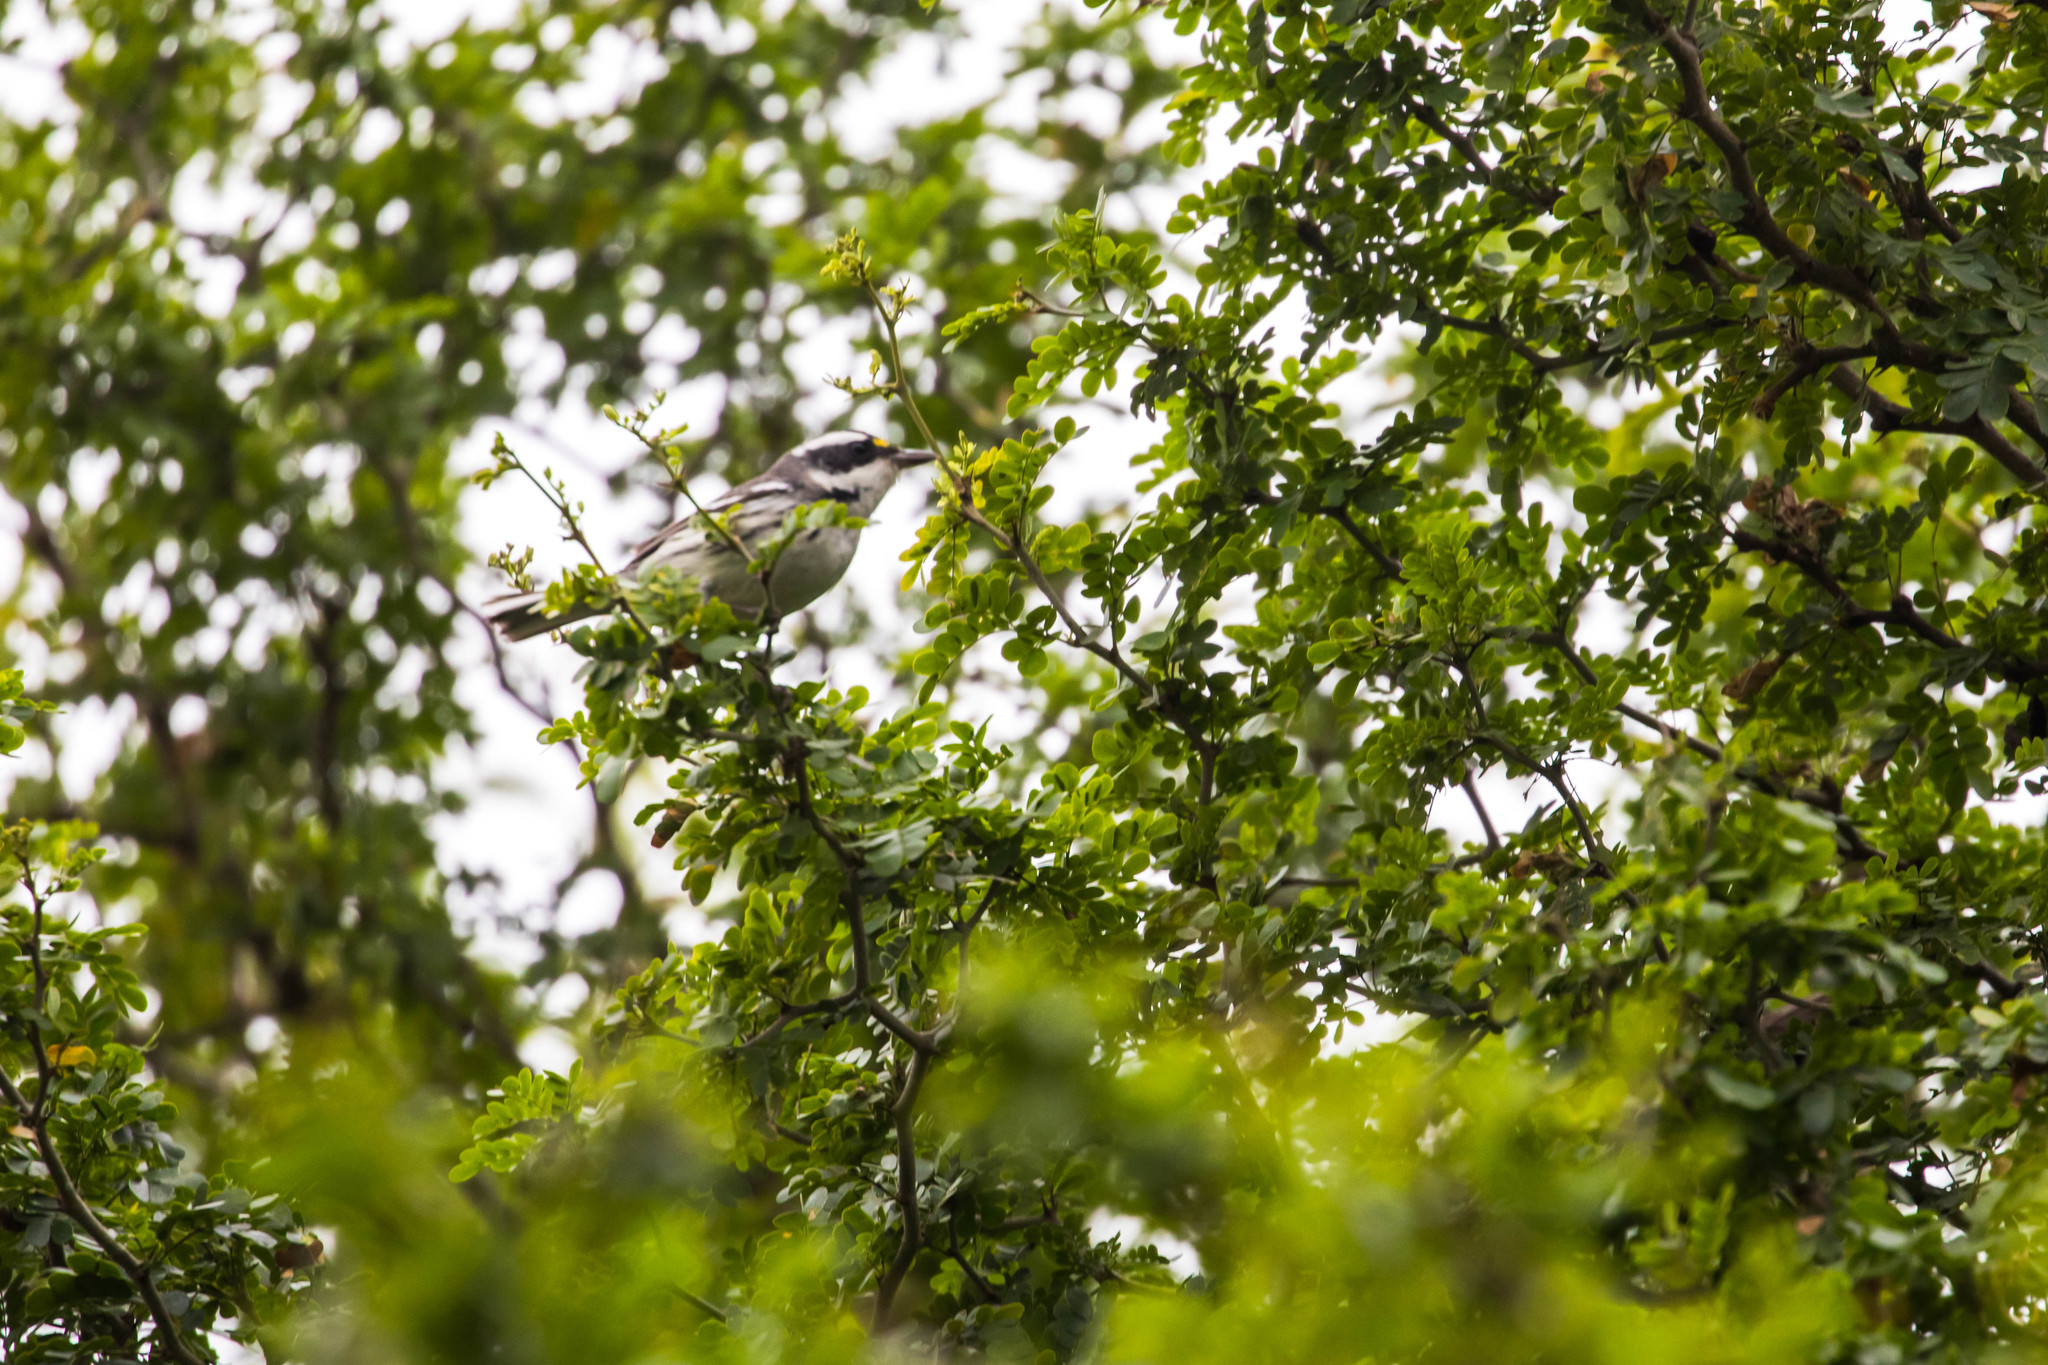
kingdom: Animalia
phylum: Chordata
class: Aves
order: Passeriformes
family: Parulidae
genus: Setophaga
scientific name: Setophaga nigrescens
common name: Black-throated gray warbler
